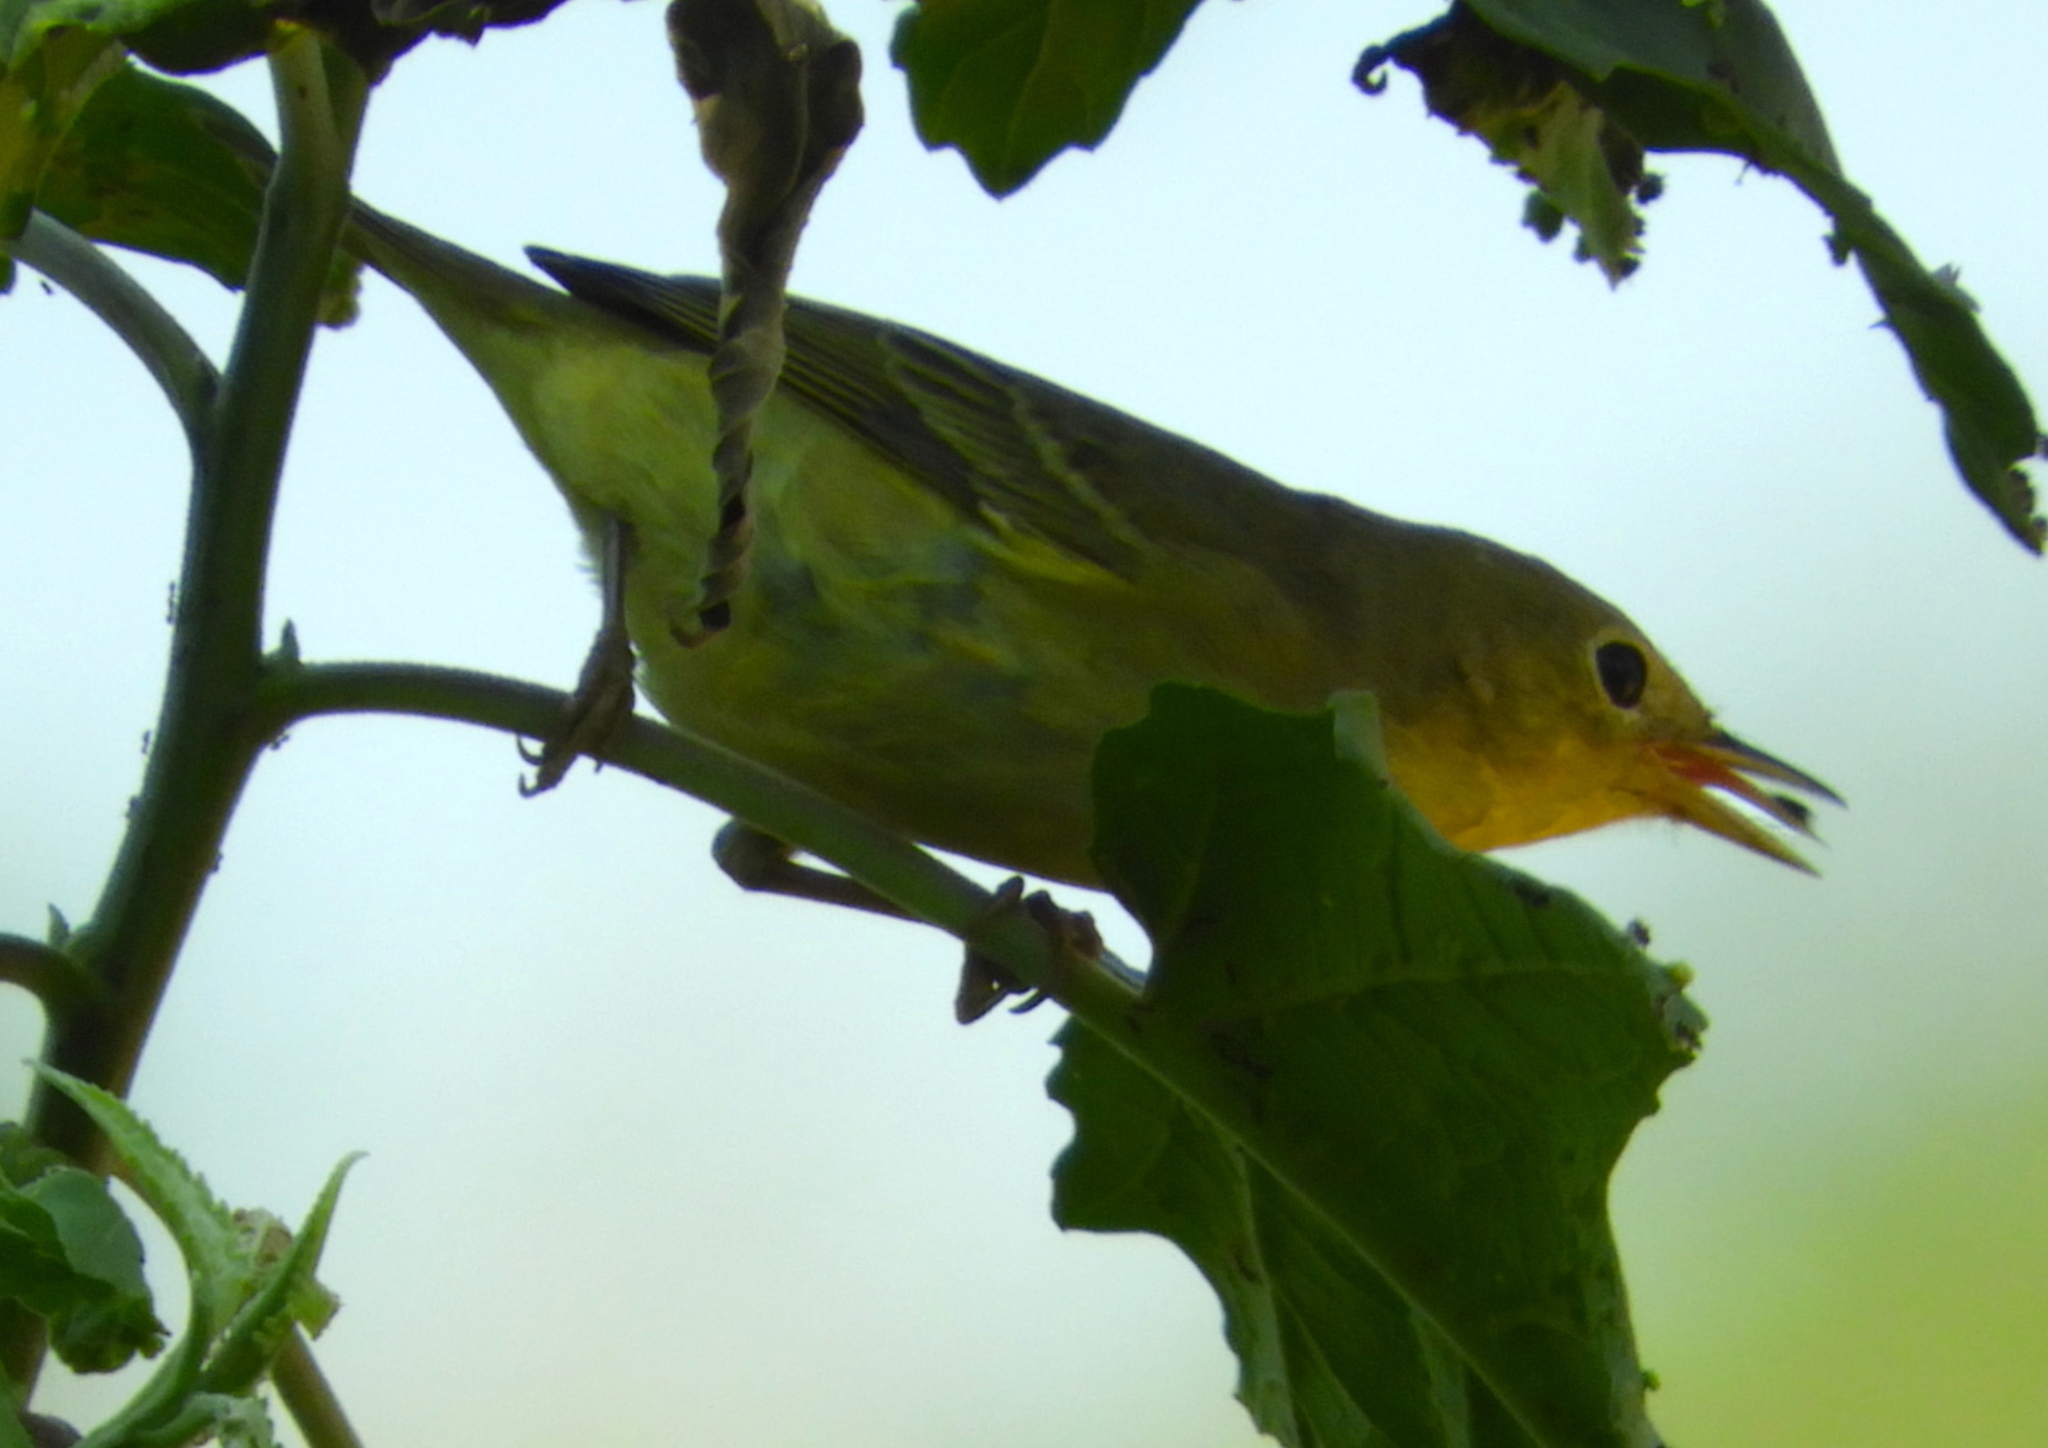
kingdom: Animalia
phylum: Chordata
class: Aves
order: Passeriformes
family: Parulidae
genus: Setophaga
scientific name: Setophaga petechia
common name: Yellow warbler
